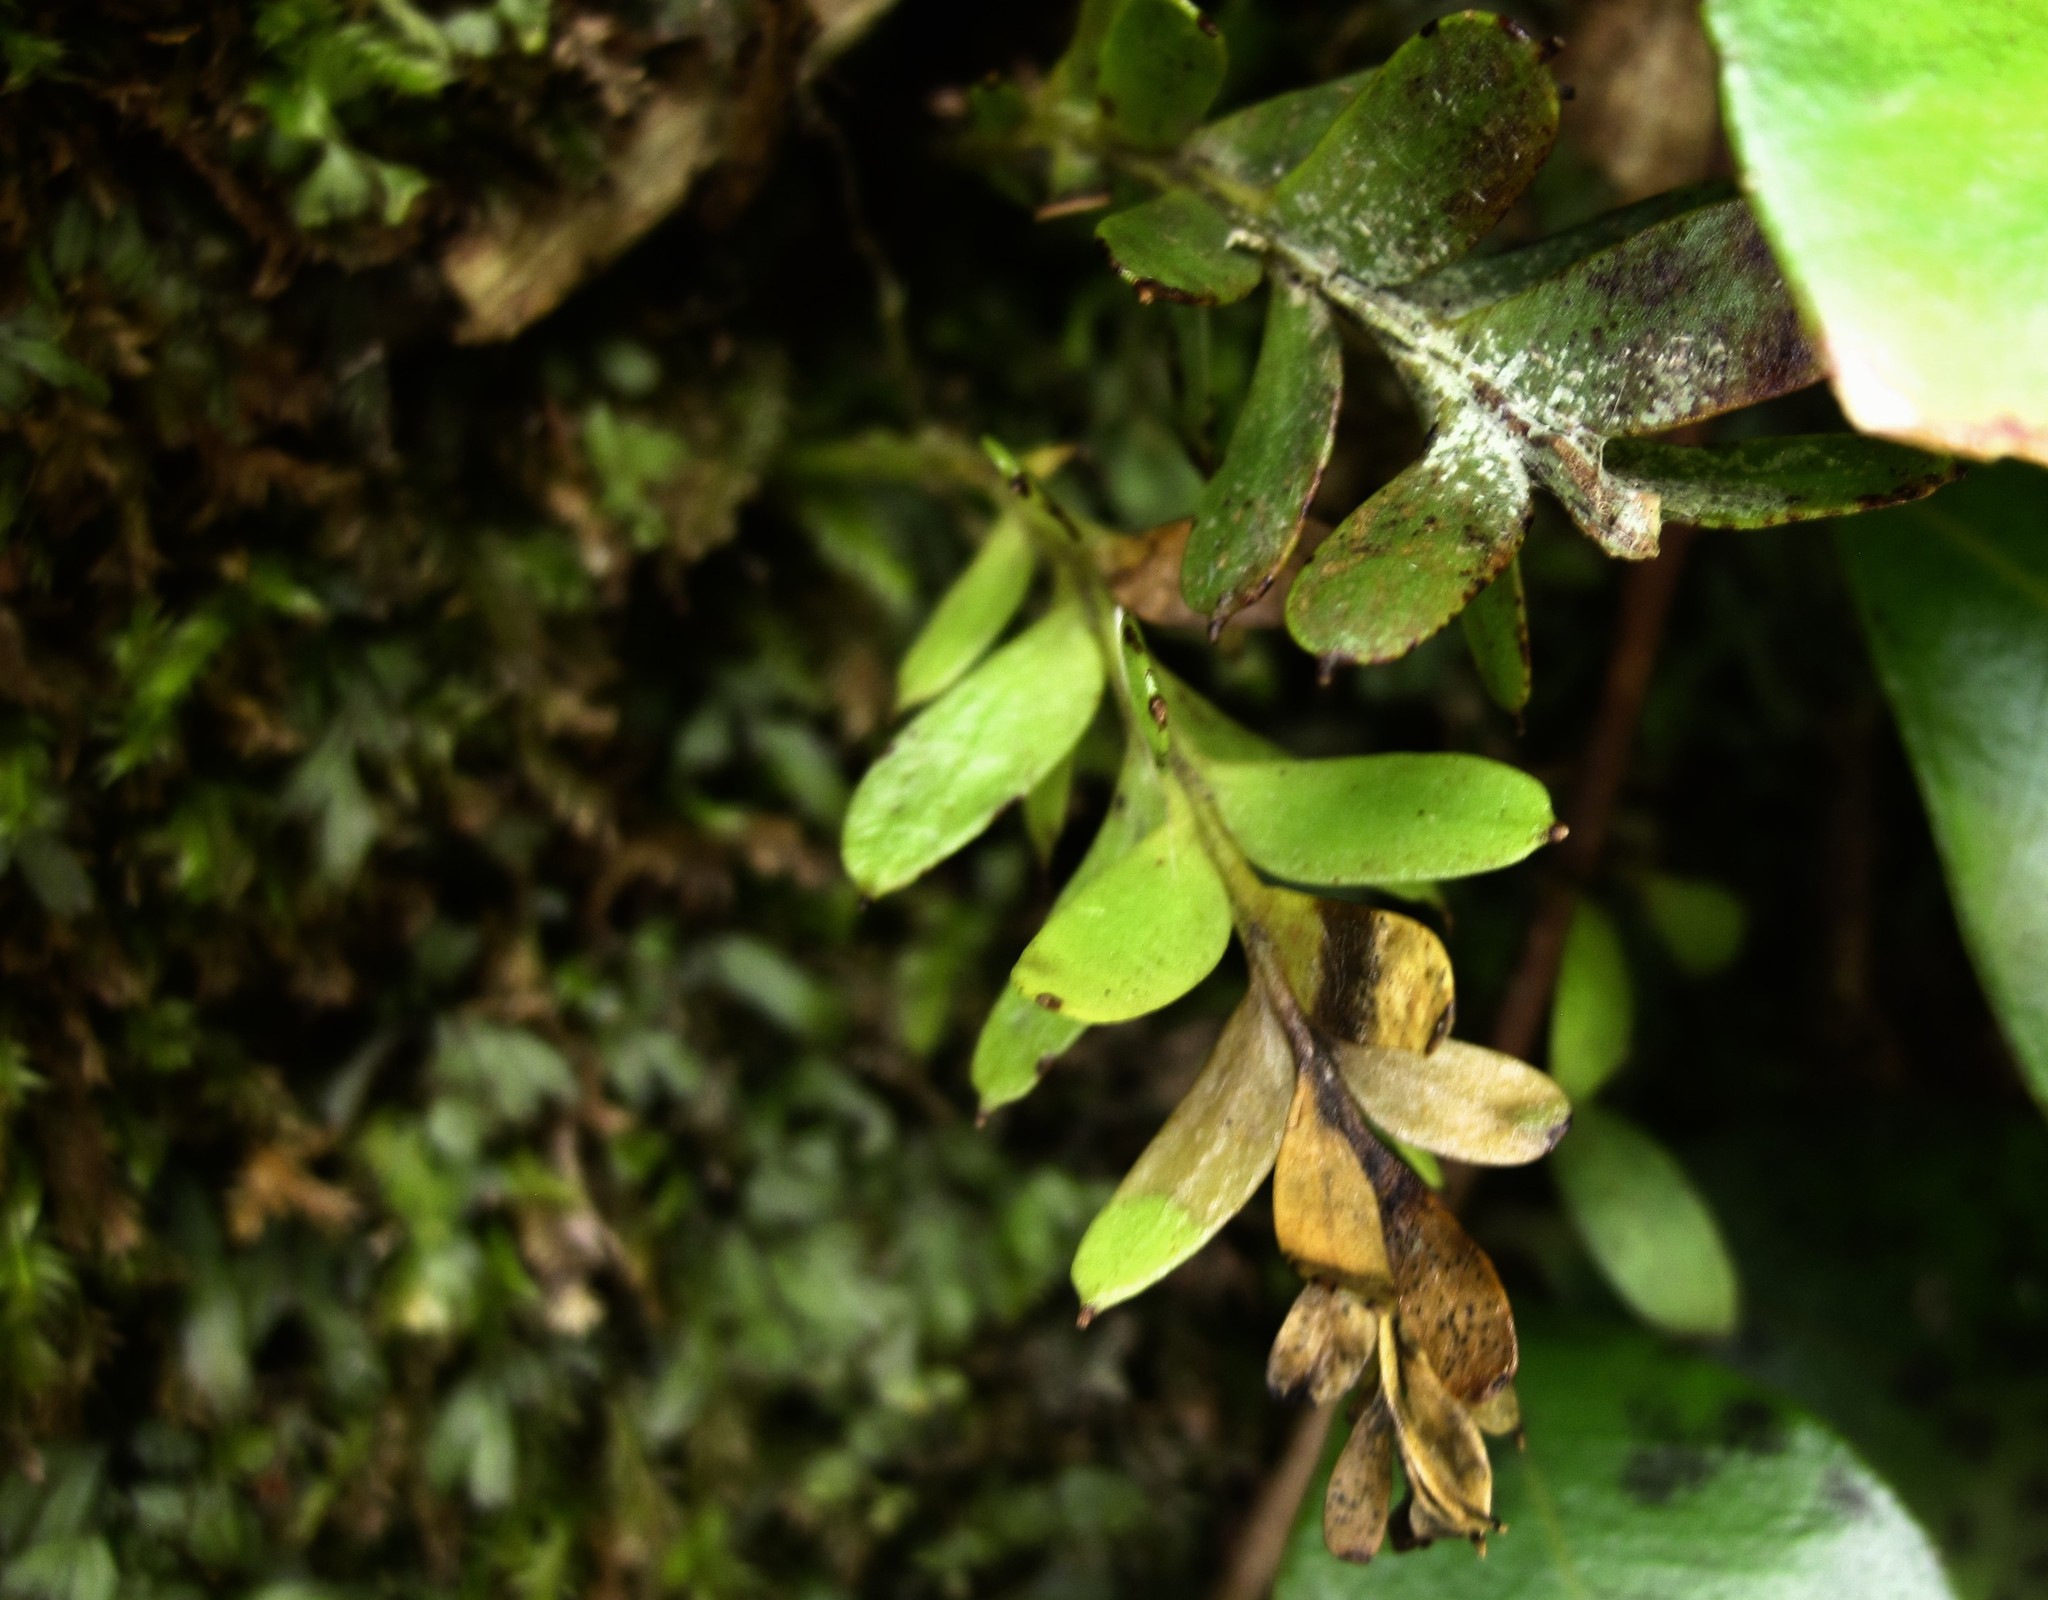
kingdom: Plantae
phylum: Tracheophyta
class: Polypodiopsida
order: Psilotales
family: Psilotaceae
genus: Tmesipteris
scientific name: Tmesipteris tannensis
